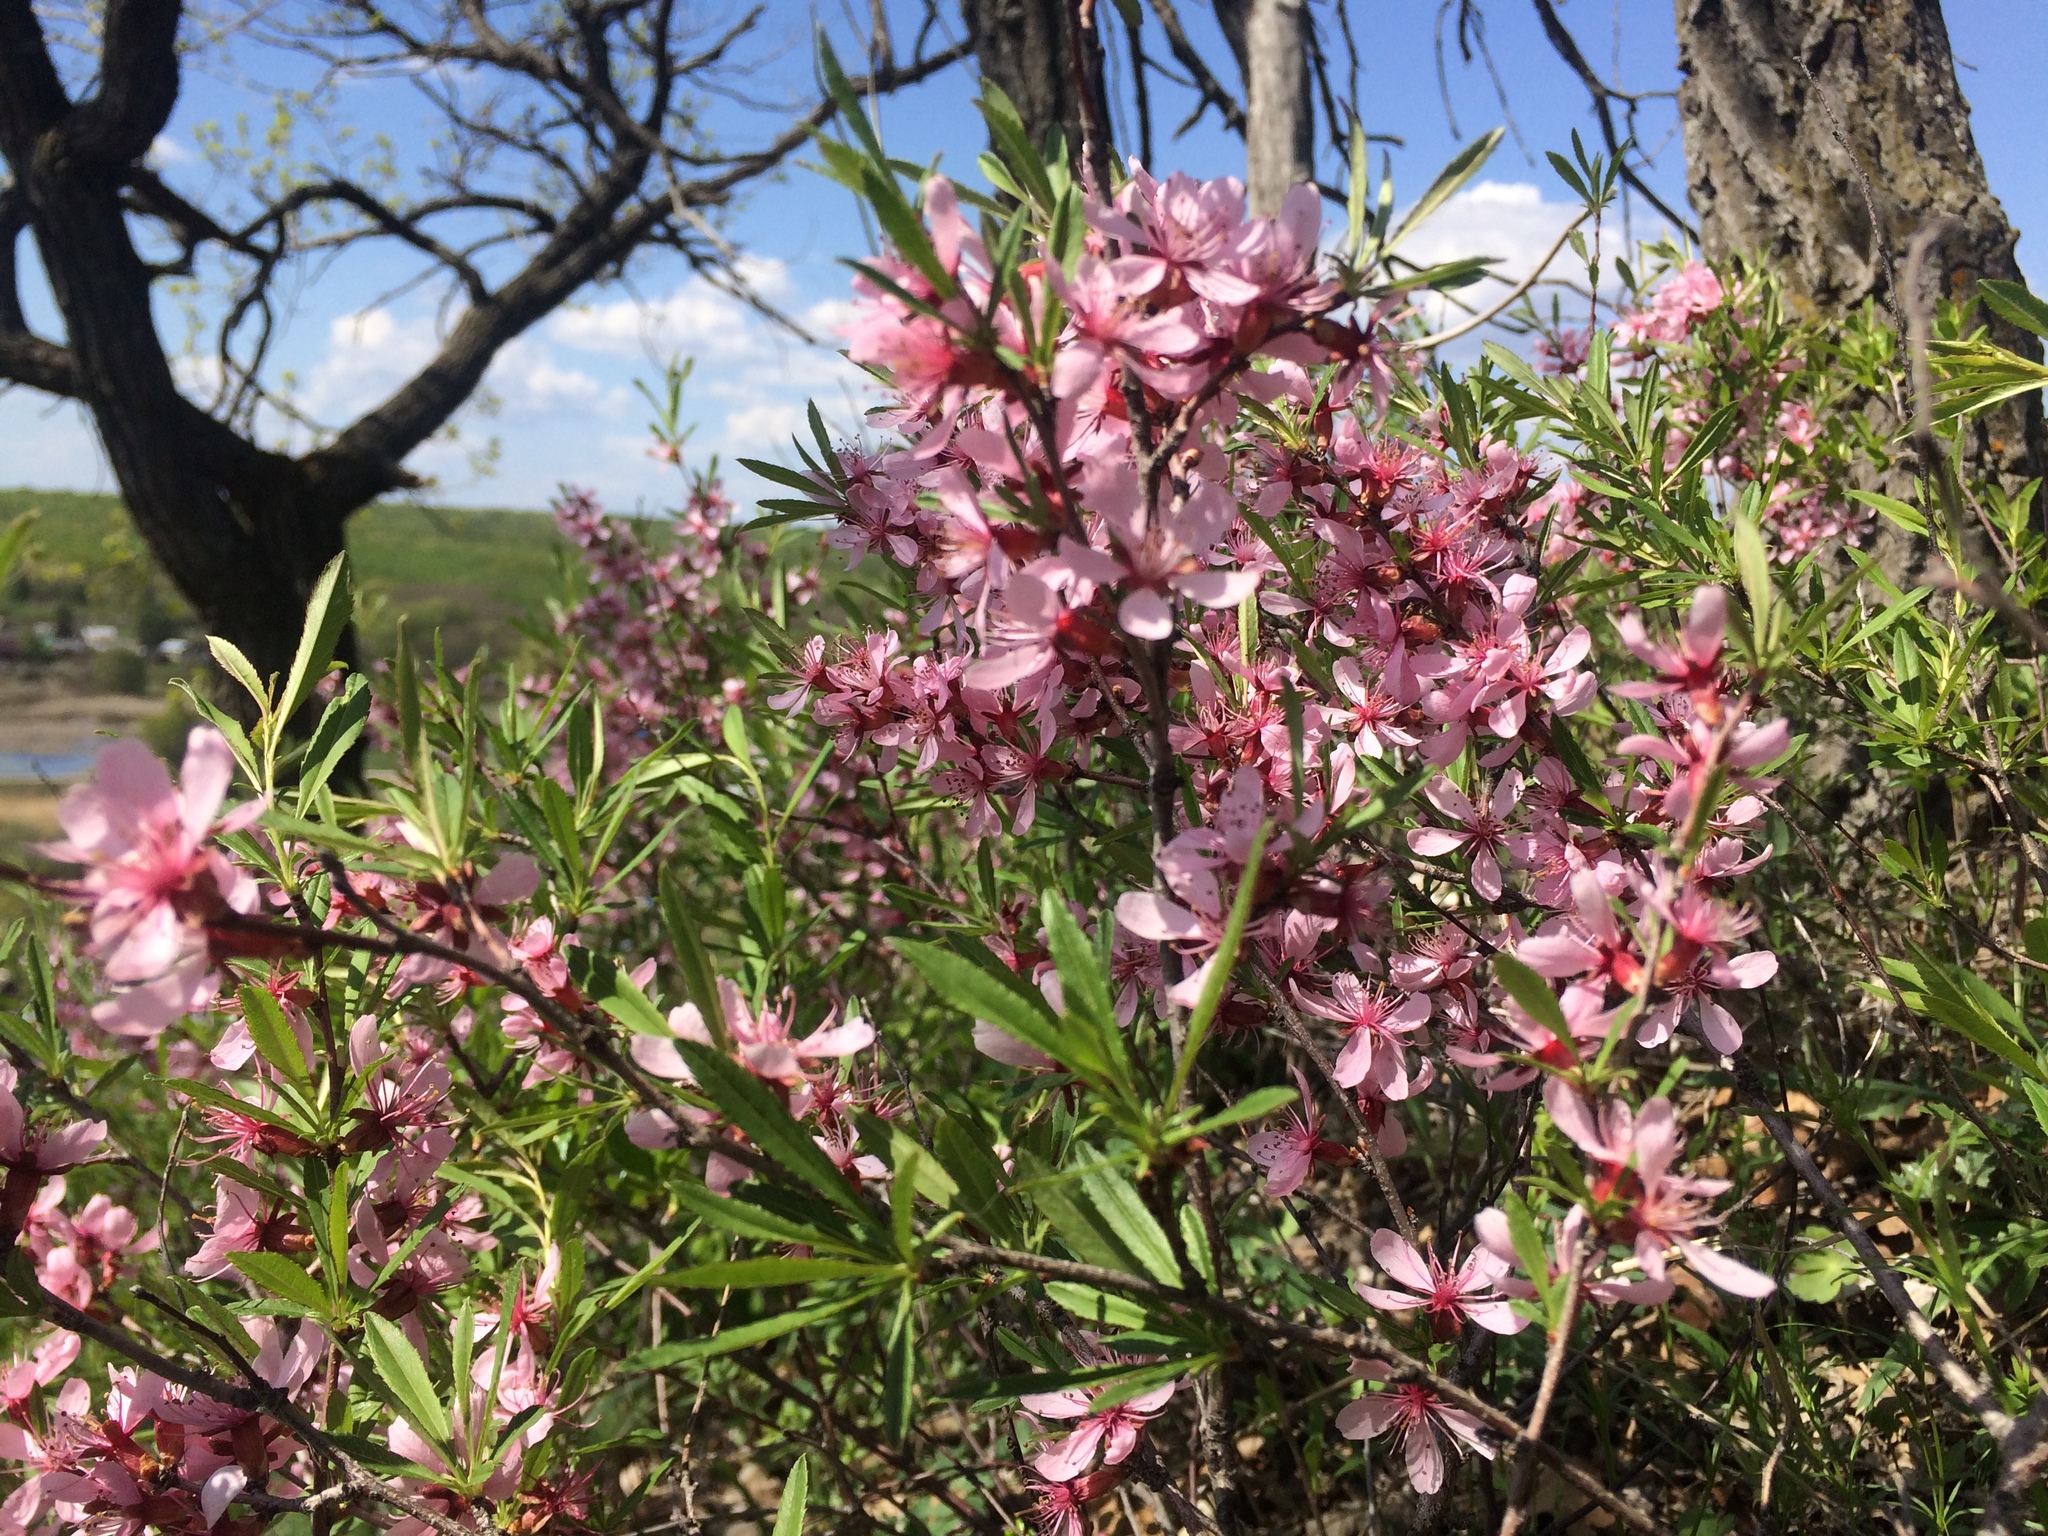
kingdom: Plantae
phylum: Tracheophyta
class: Magnoliopsida
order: Rosales
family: Rosaceae
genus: Prunus
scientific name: Prunus tenella
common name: Dwarf russian almond
